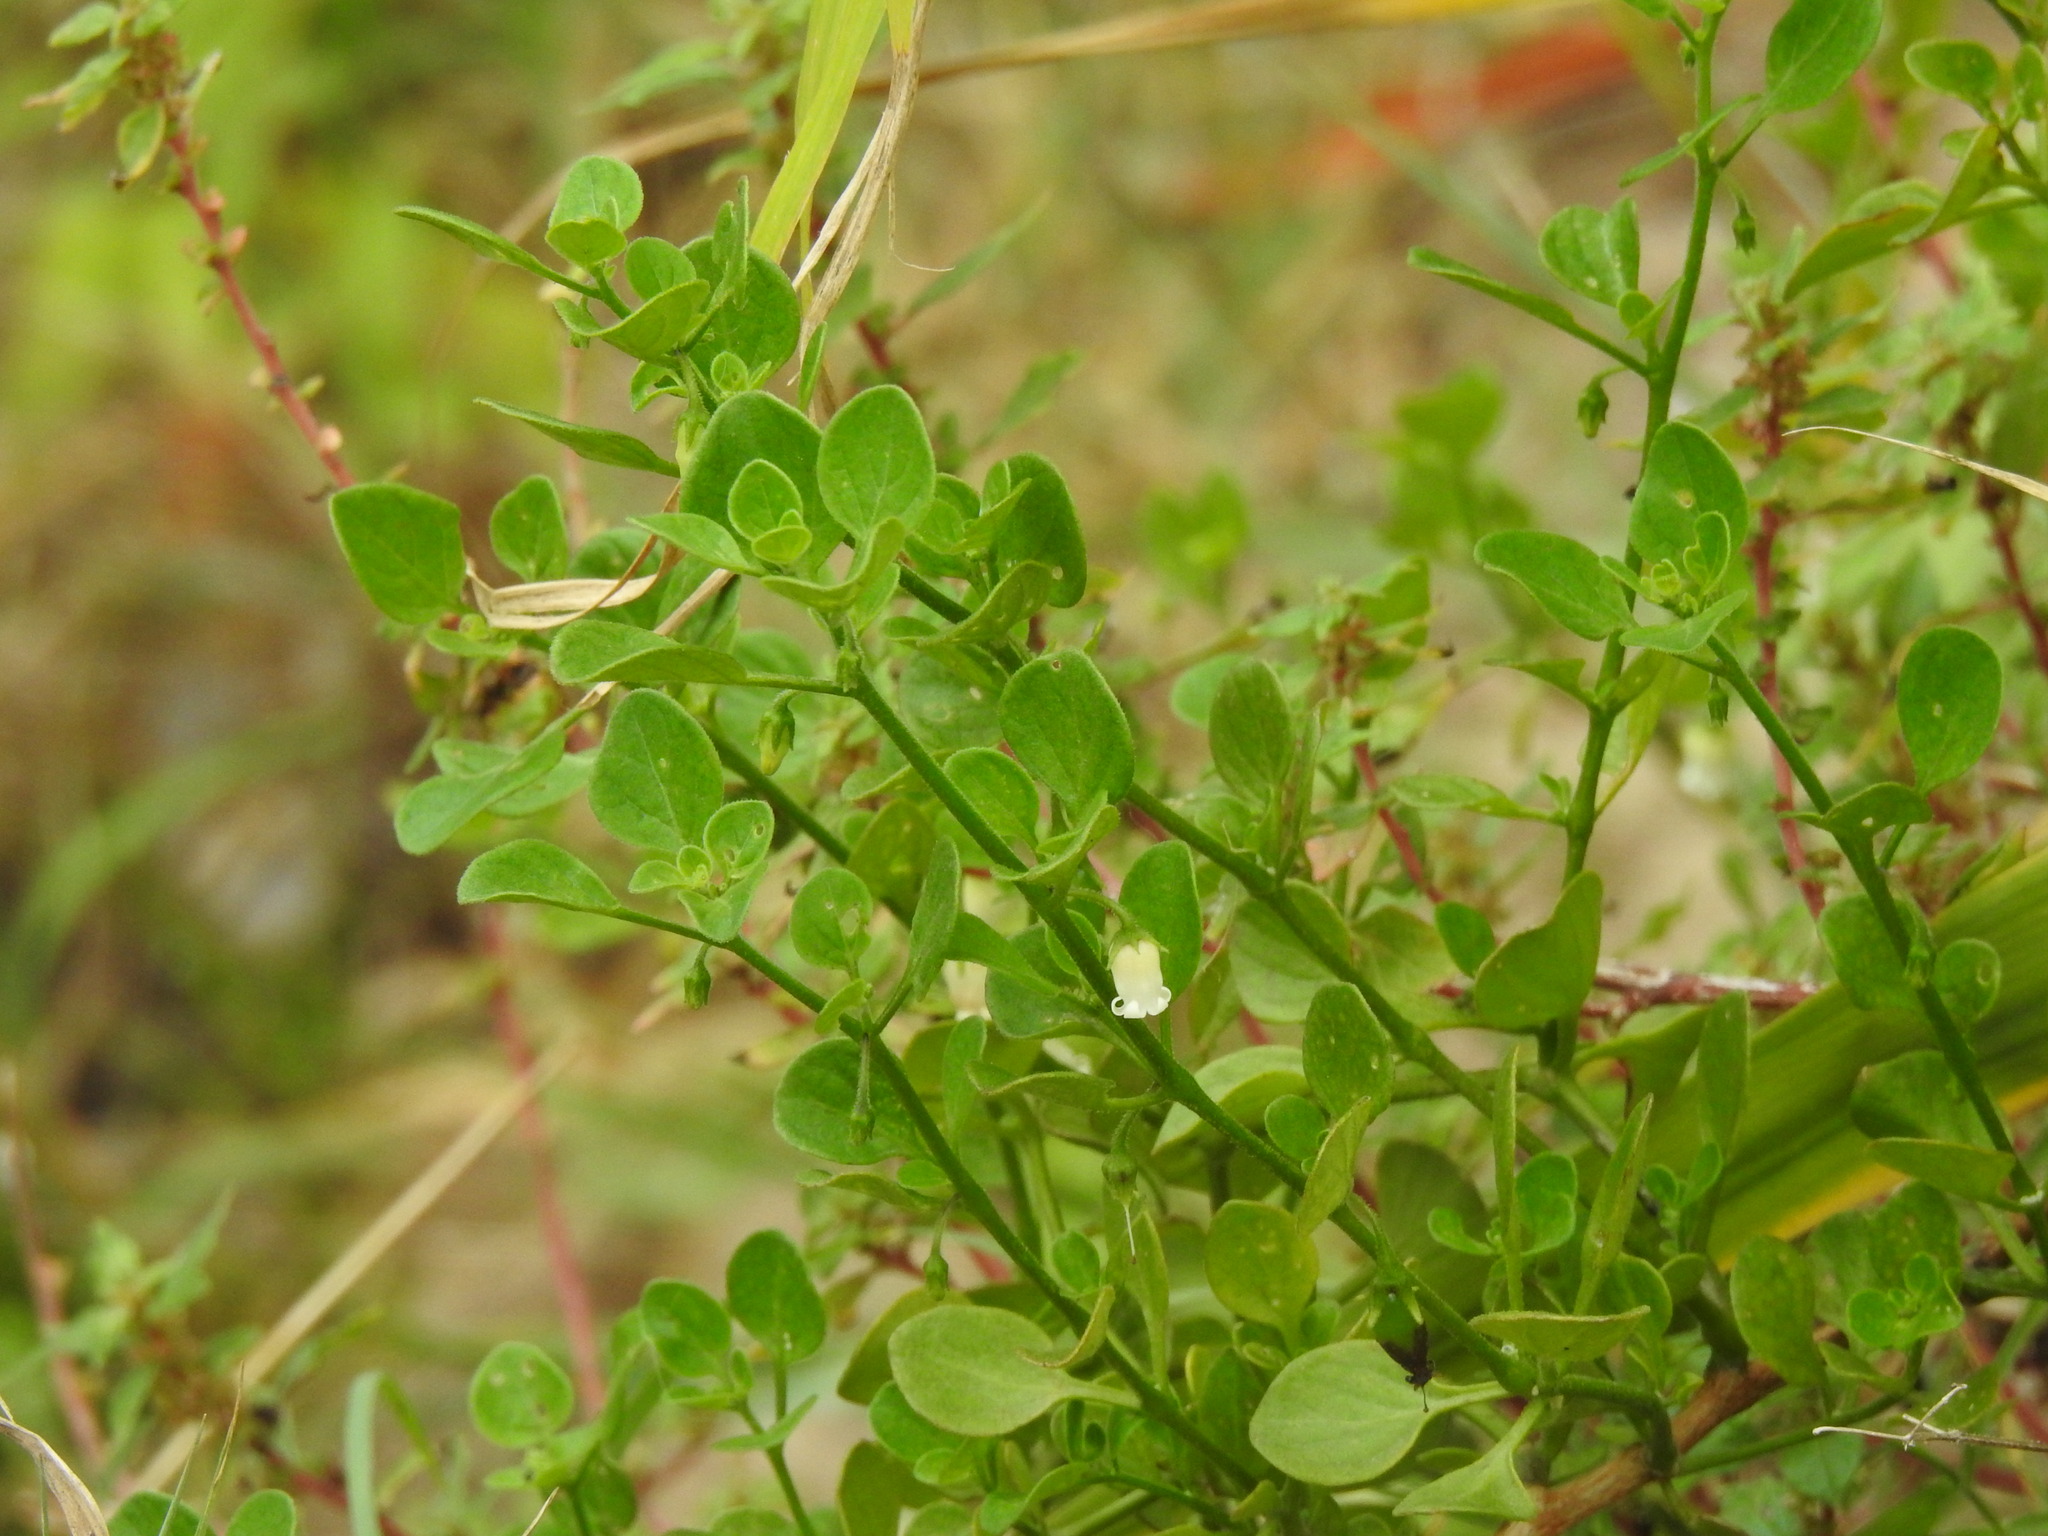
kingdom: Plantae
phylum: Tracheophyta
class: Magnoliopsida
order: Solanales
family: Solanaceae
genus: Salpichroa
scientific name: Salpichroa origanifolia
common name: Lily-of-the-valley-vine
